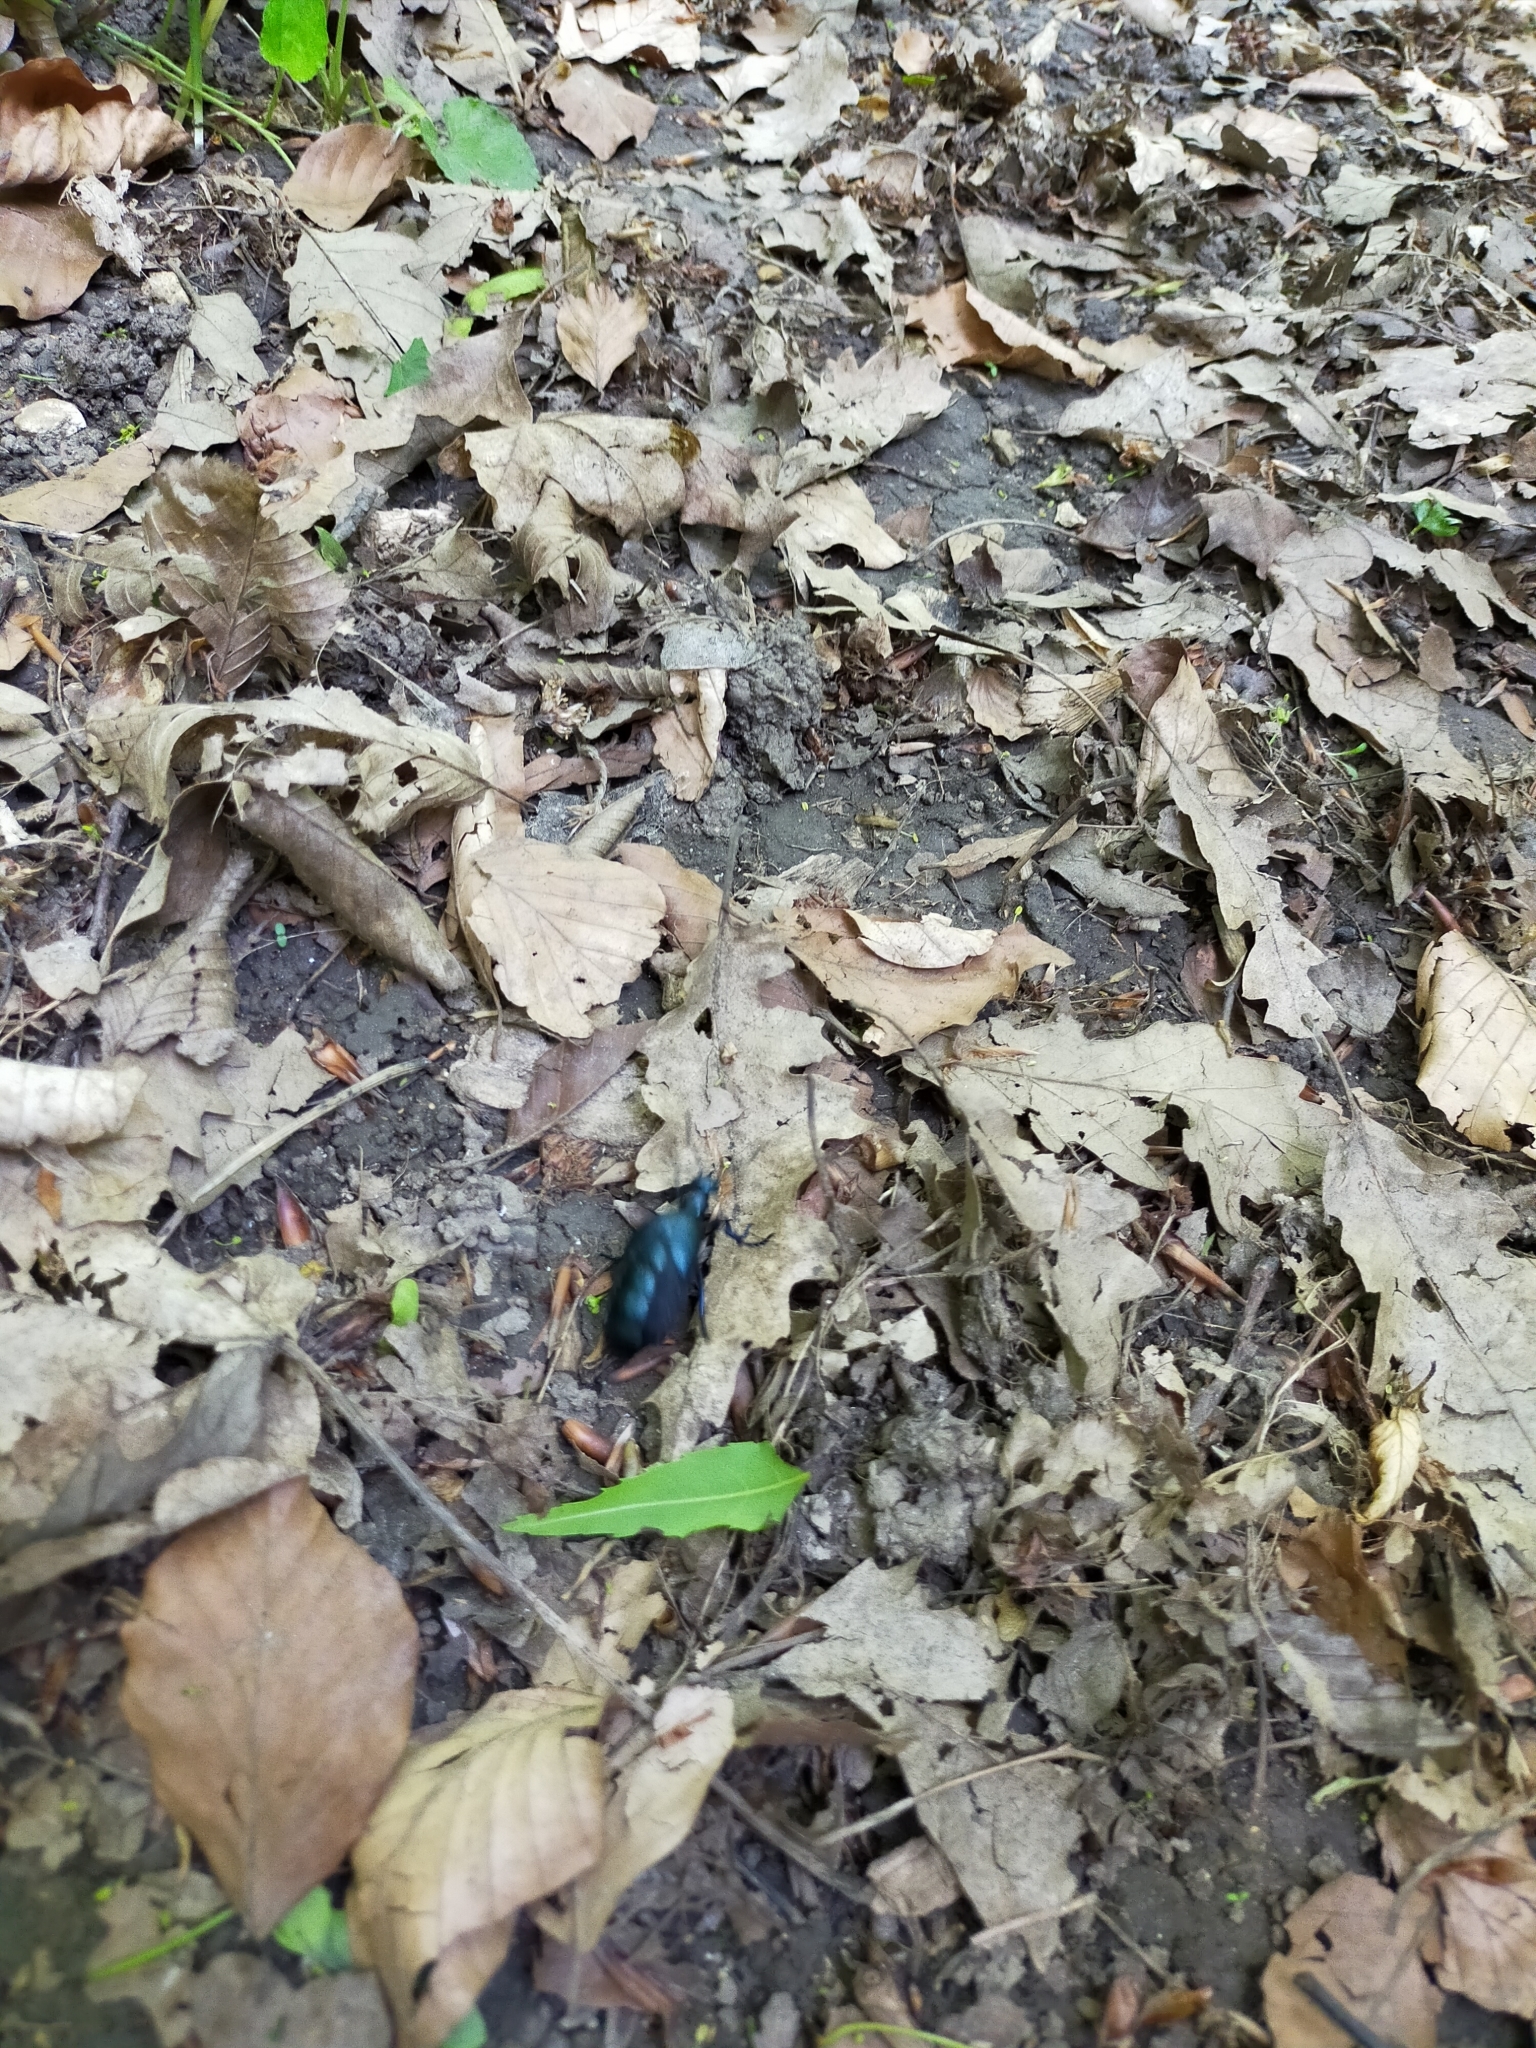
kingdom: Animalia
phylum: Arthropoda
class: Insecta
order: Coleoptera
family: Meloidae
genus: Meloe
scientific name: Meloe violaceus
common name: Violet oil-beetle
